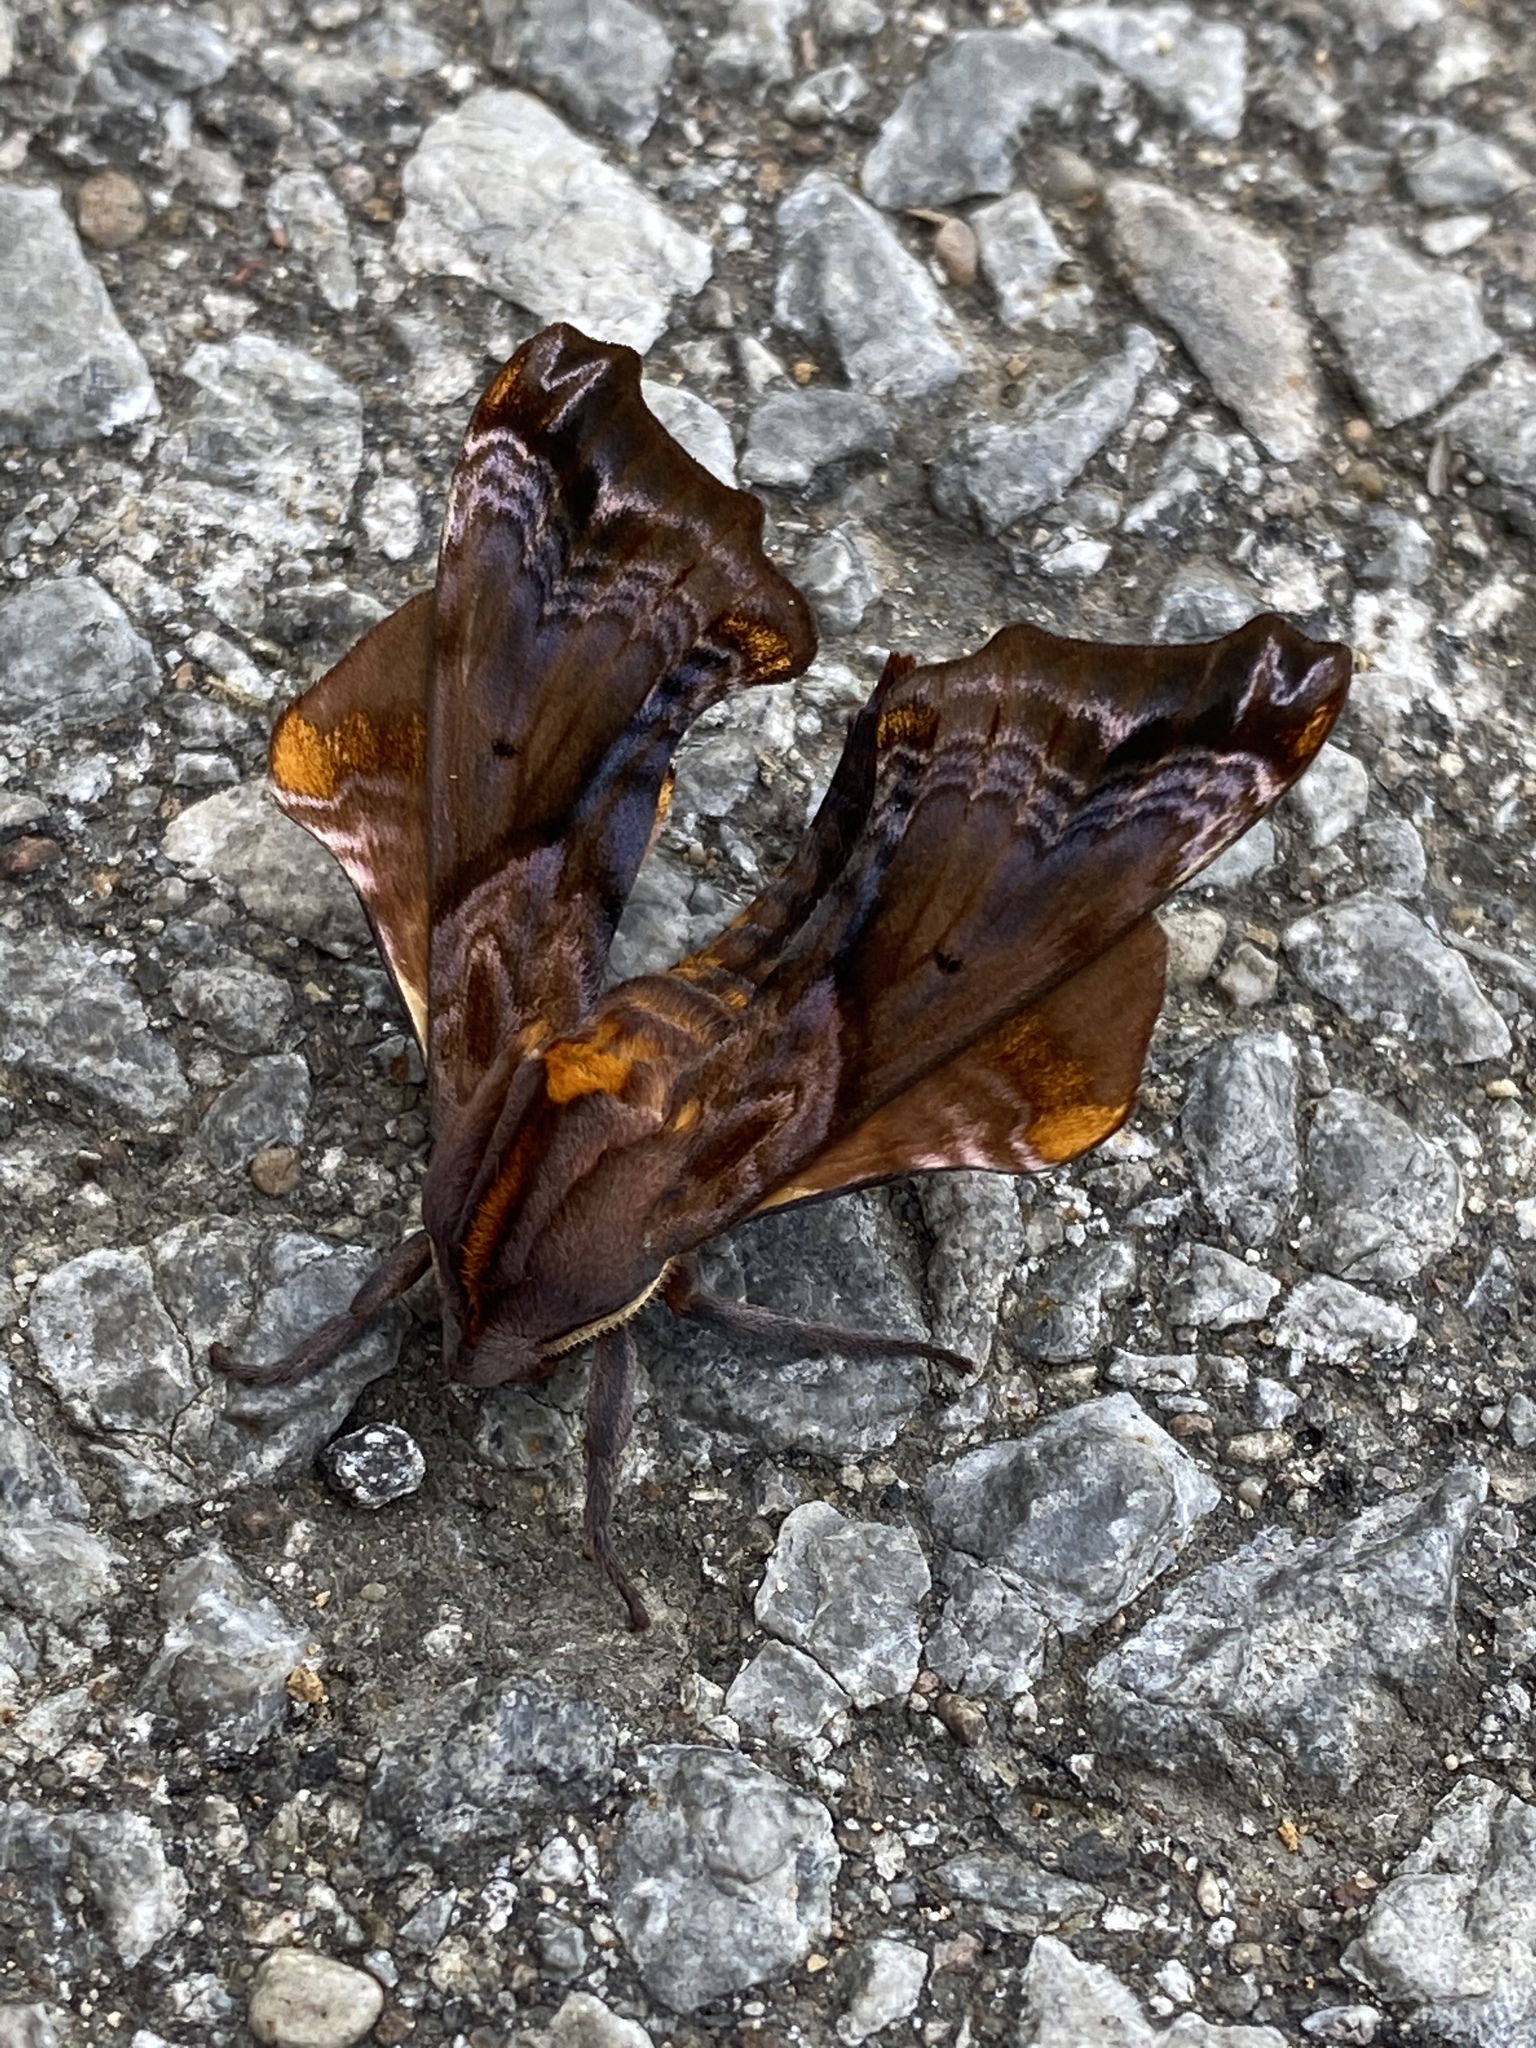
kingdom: Animalia
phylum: Arthropoda
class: Insecta
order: Lepidoptera
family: Sphingidae
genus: Paonias
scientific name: Paonias myops
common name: Small-eyed sphinx
